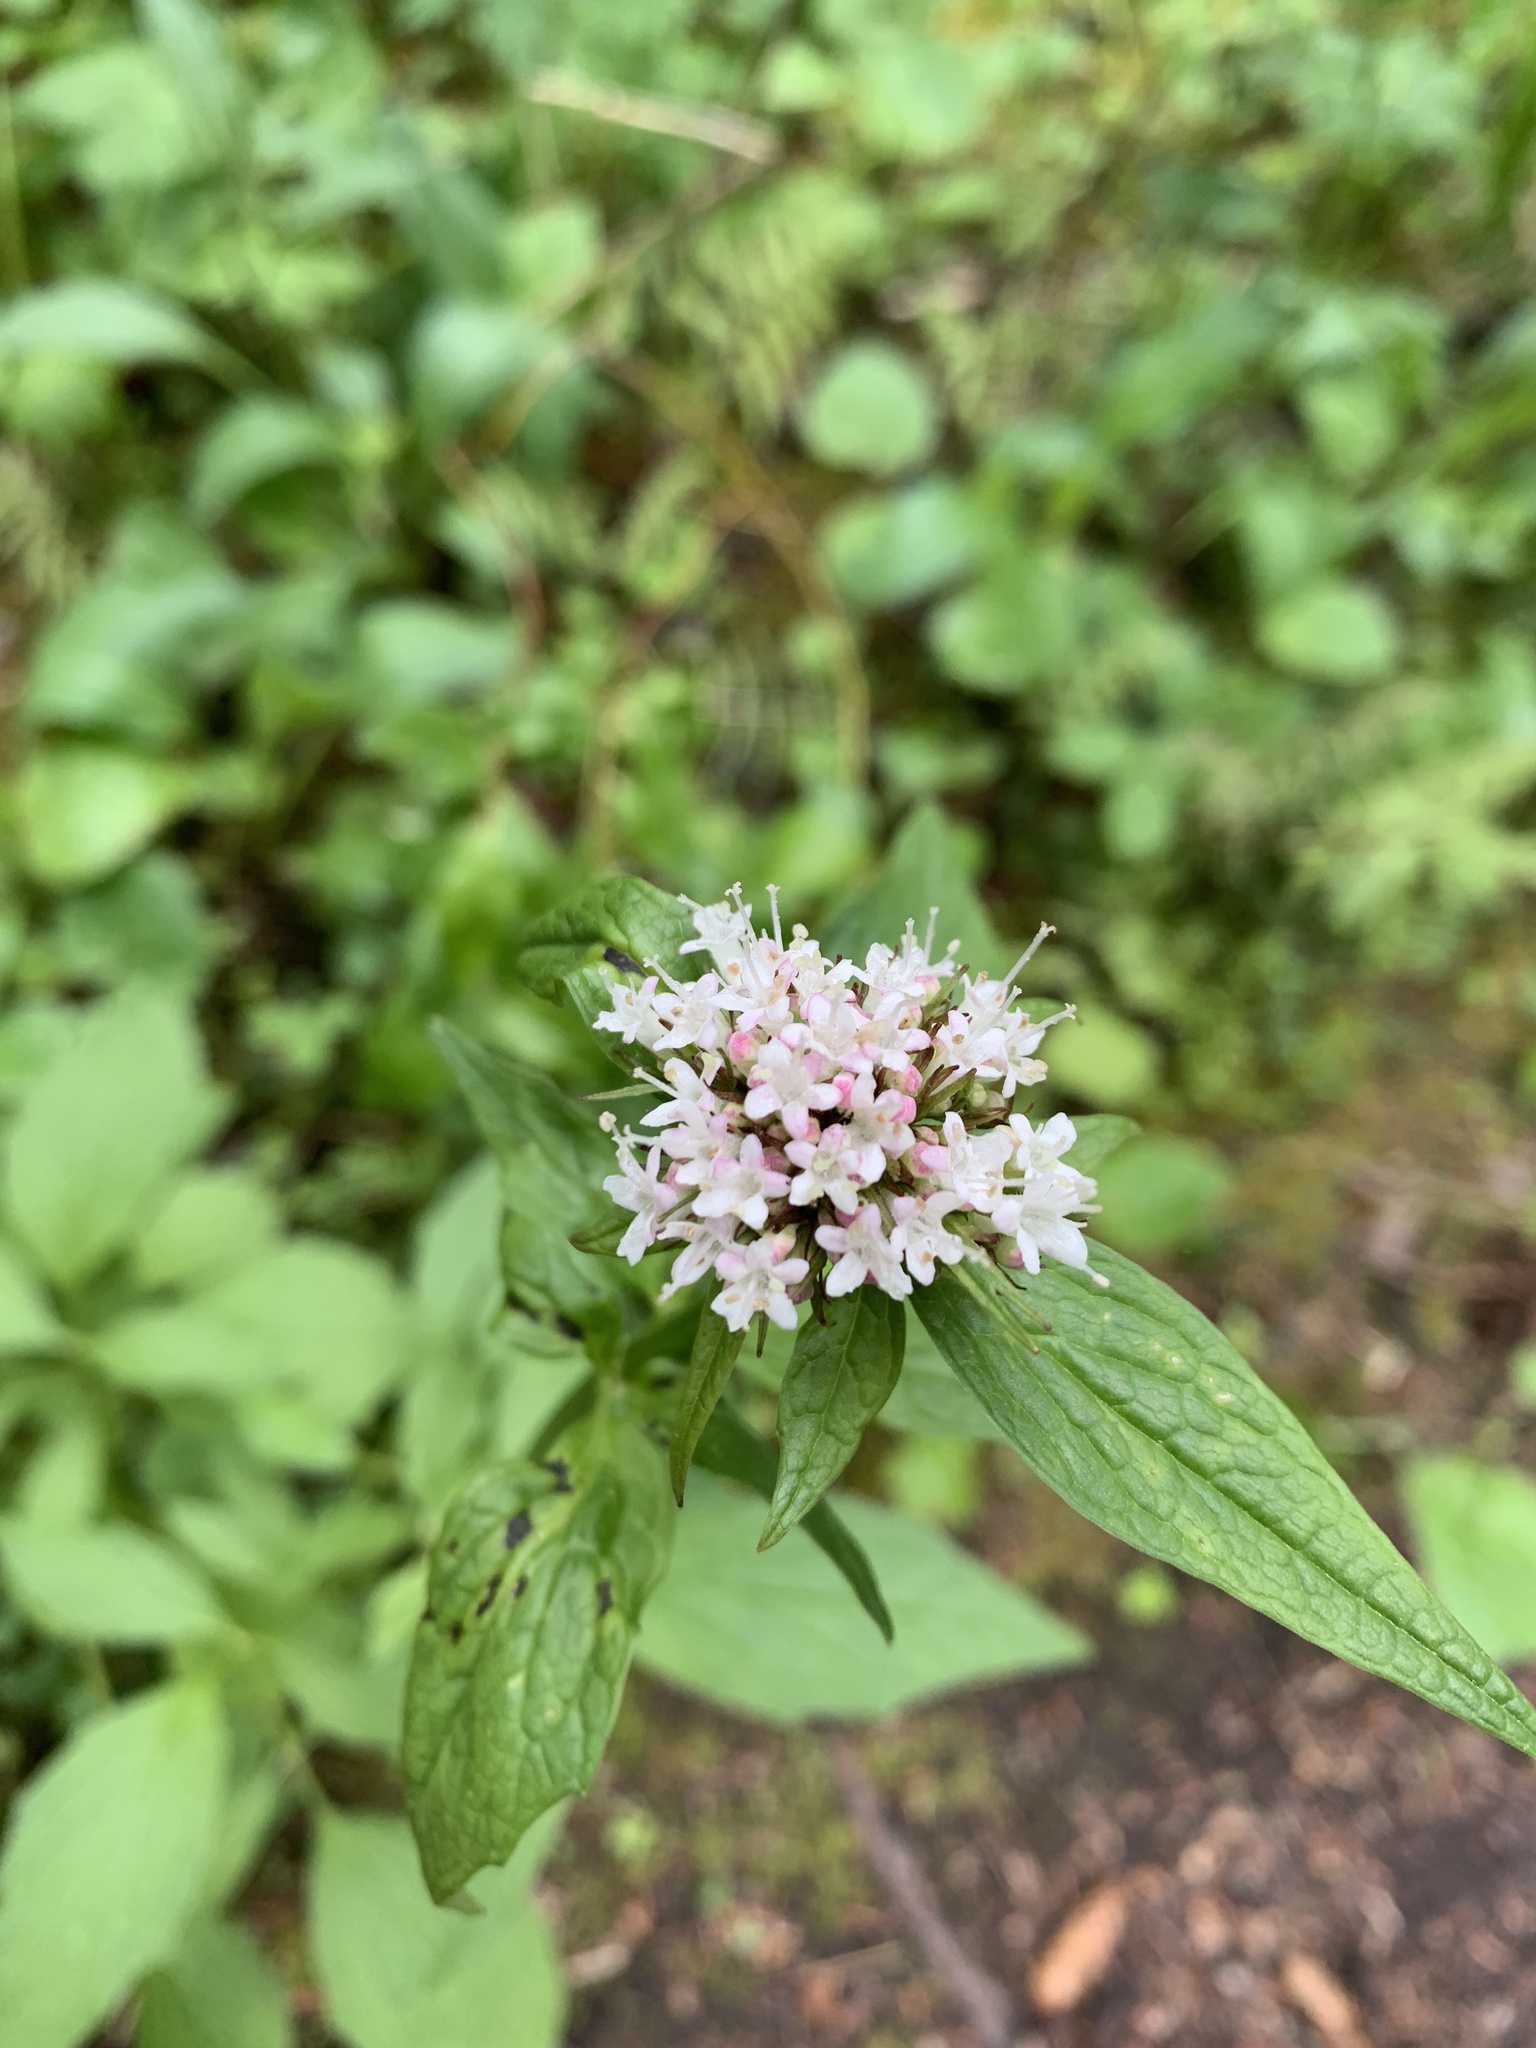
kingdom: Plantae
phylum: Tracheophyta
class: Magnoliopsida
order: Dipsacales
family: Caprifoliaceae
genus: Valeriana
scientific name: Valeriana sitchensis
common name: Pacific valerian
